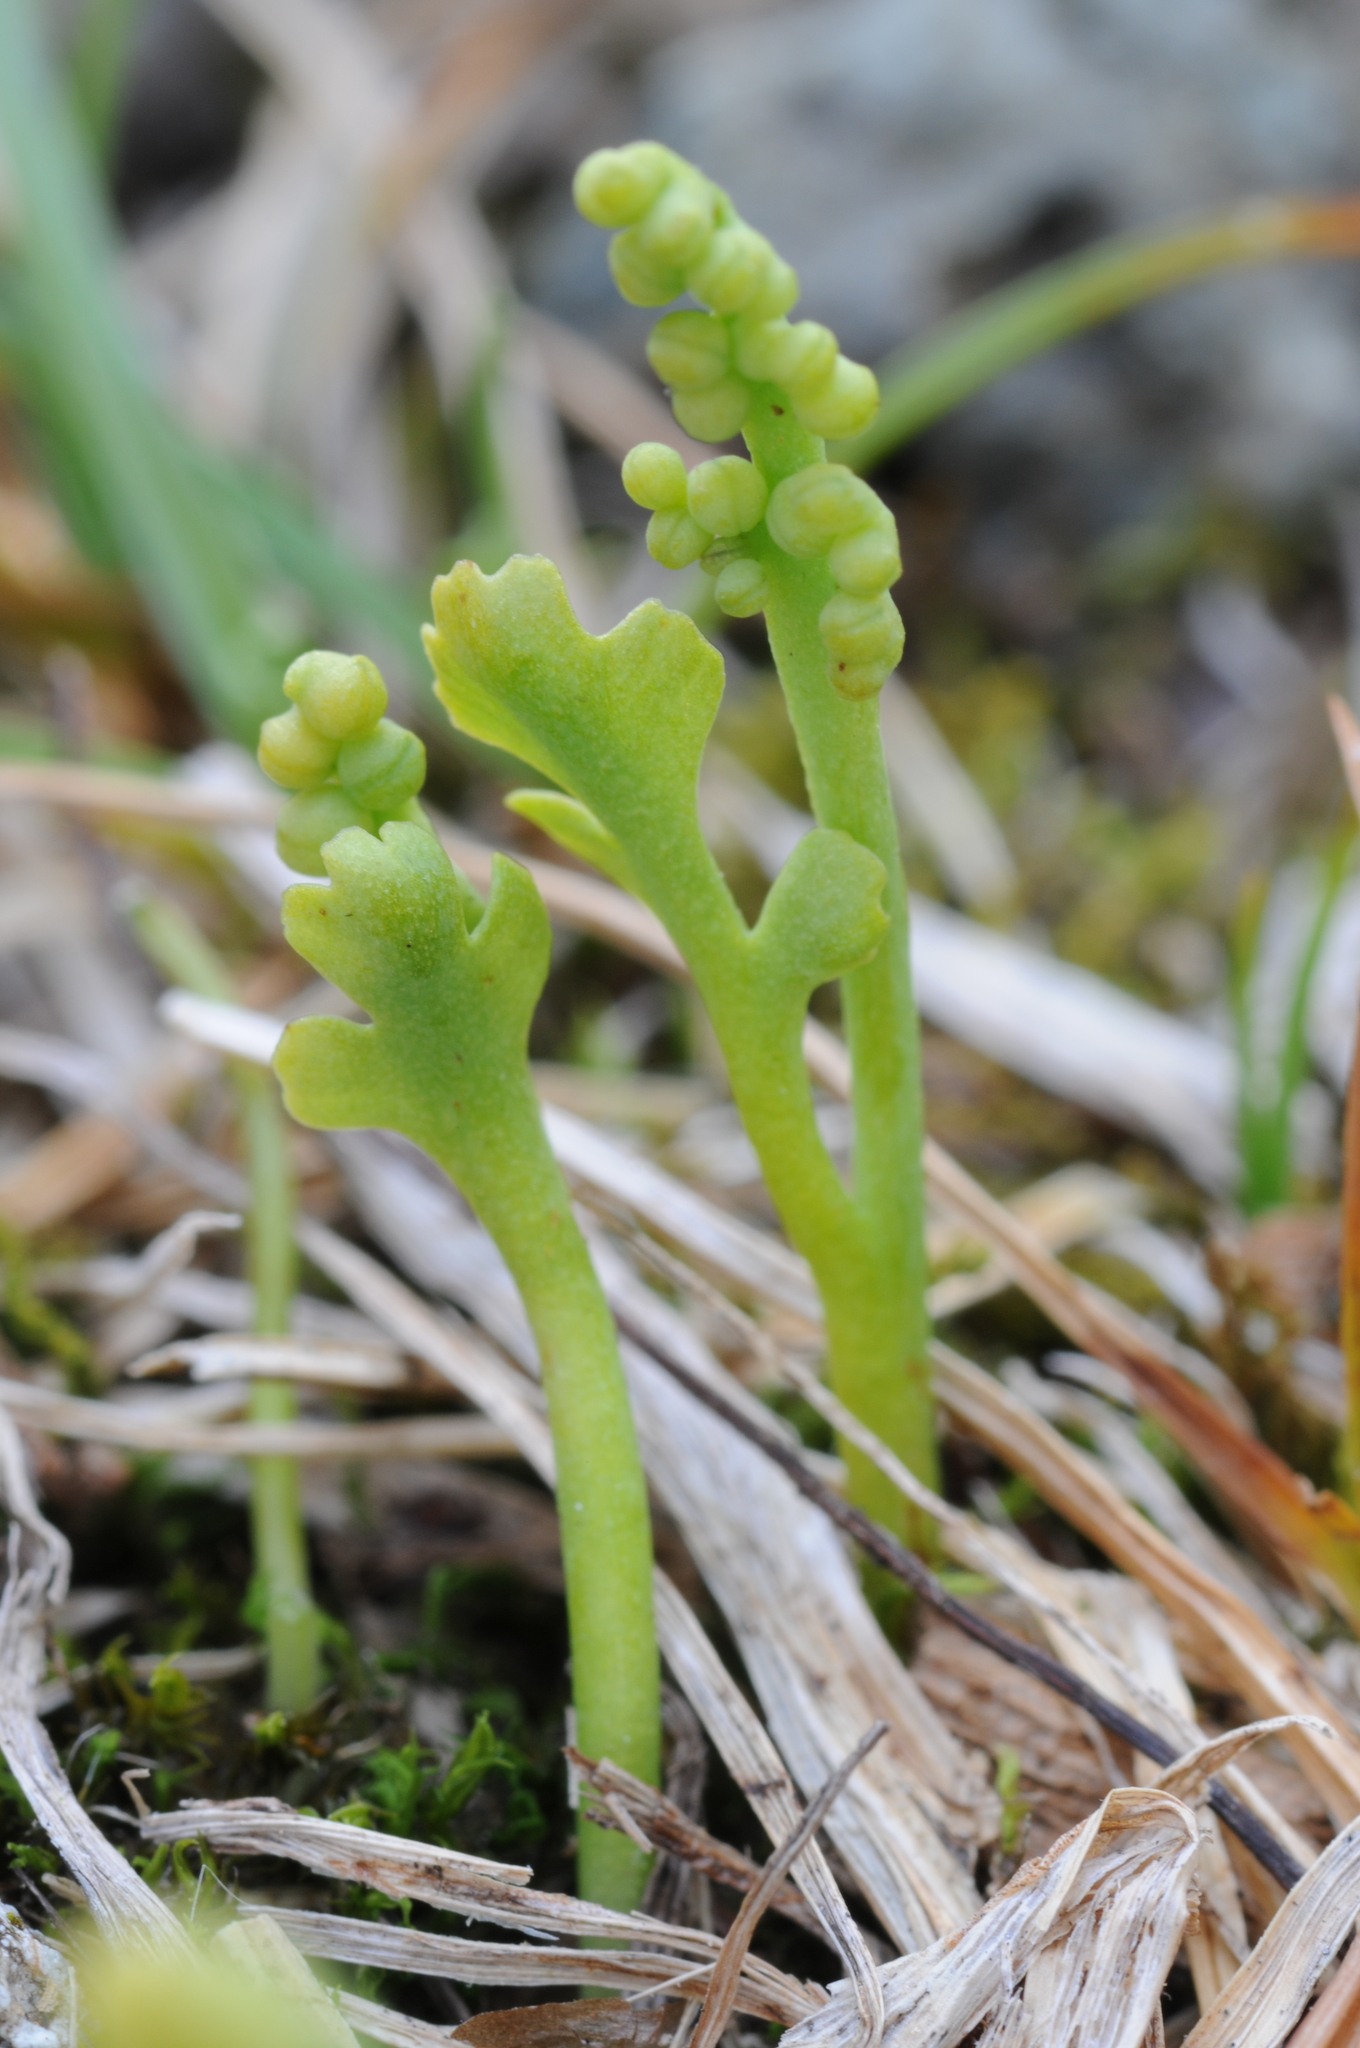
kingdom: Plantae
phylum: Tracheophyta
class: Polypodiopsida
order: Ophioglossales
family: Ophioglossaceae
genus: Botrychium
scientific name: Botrychium montanum
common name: Mountain moonwort
